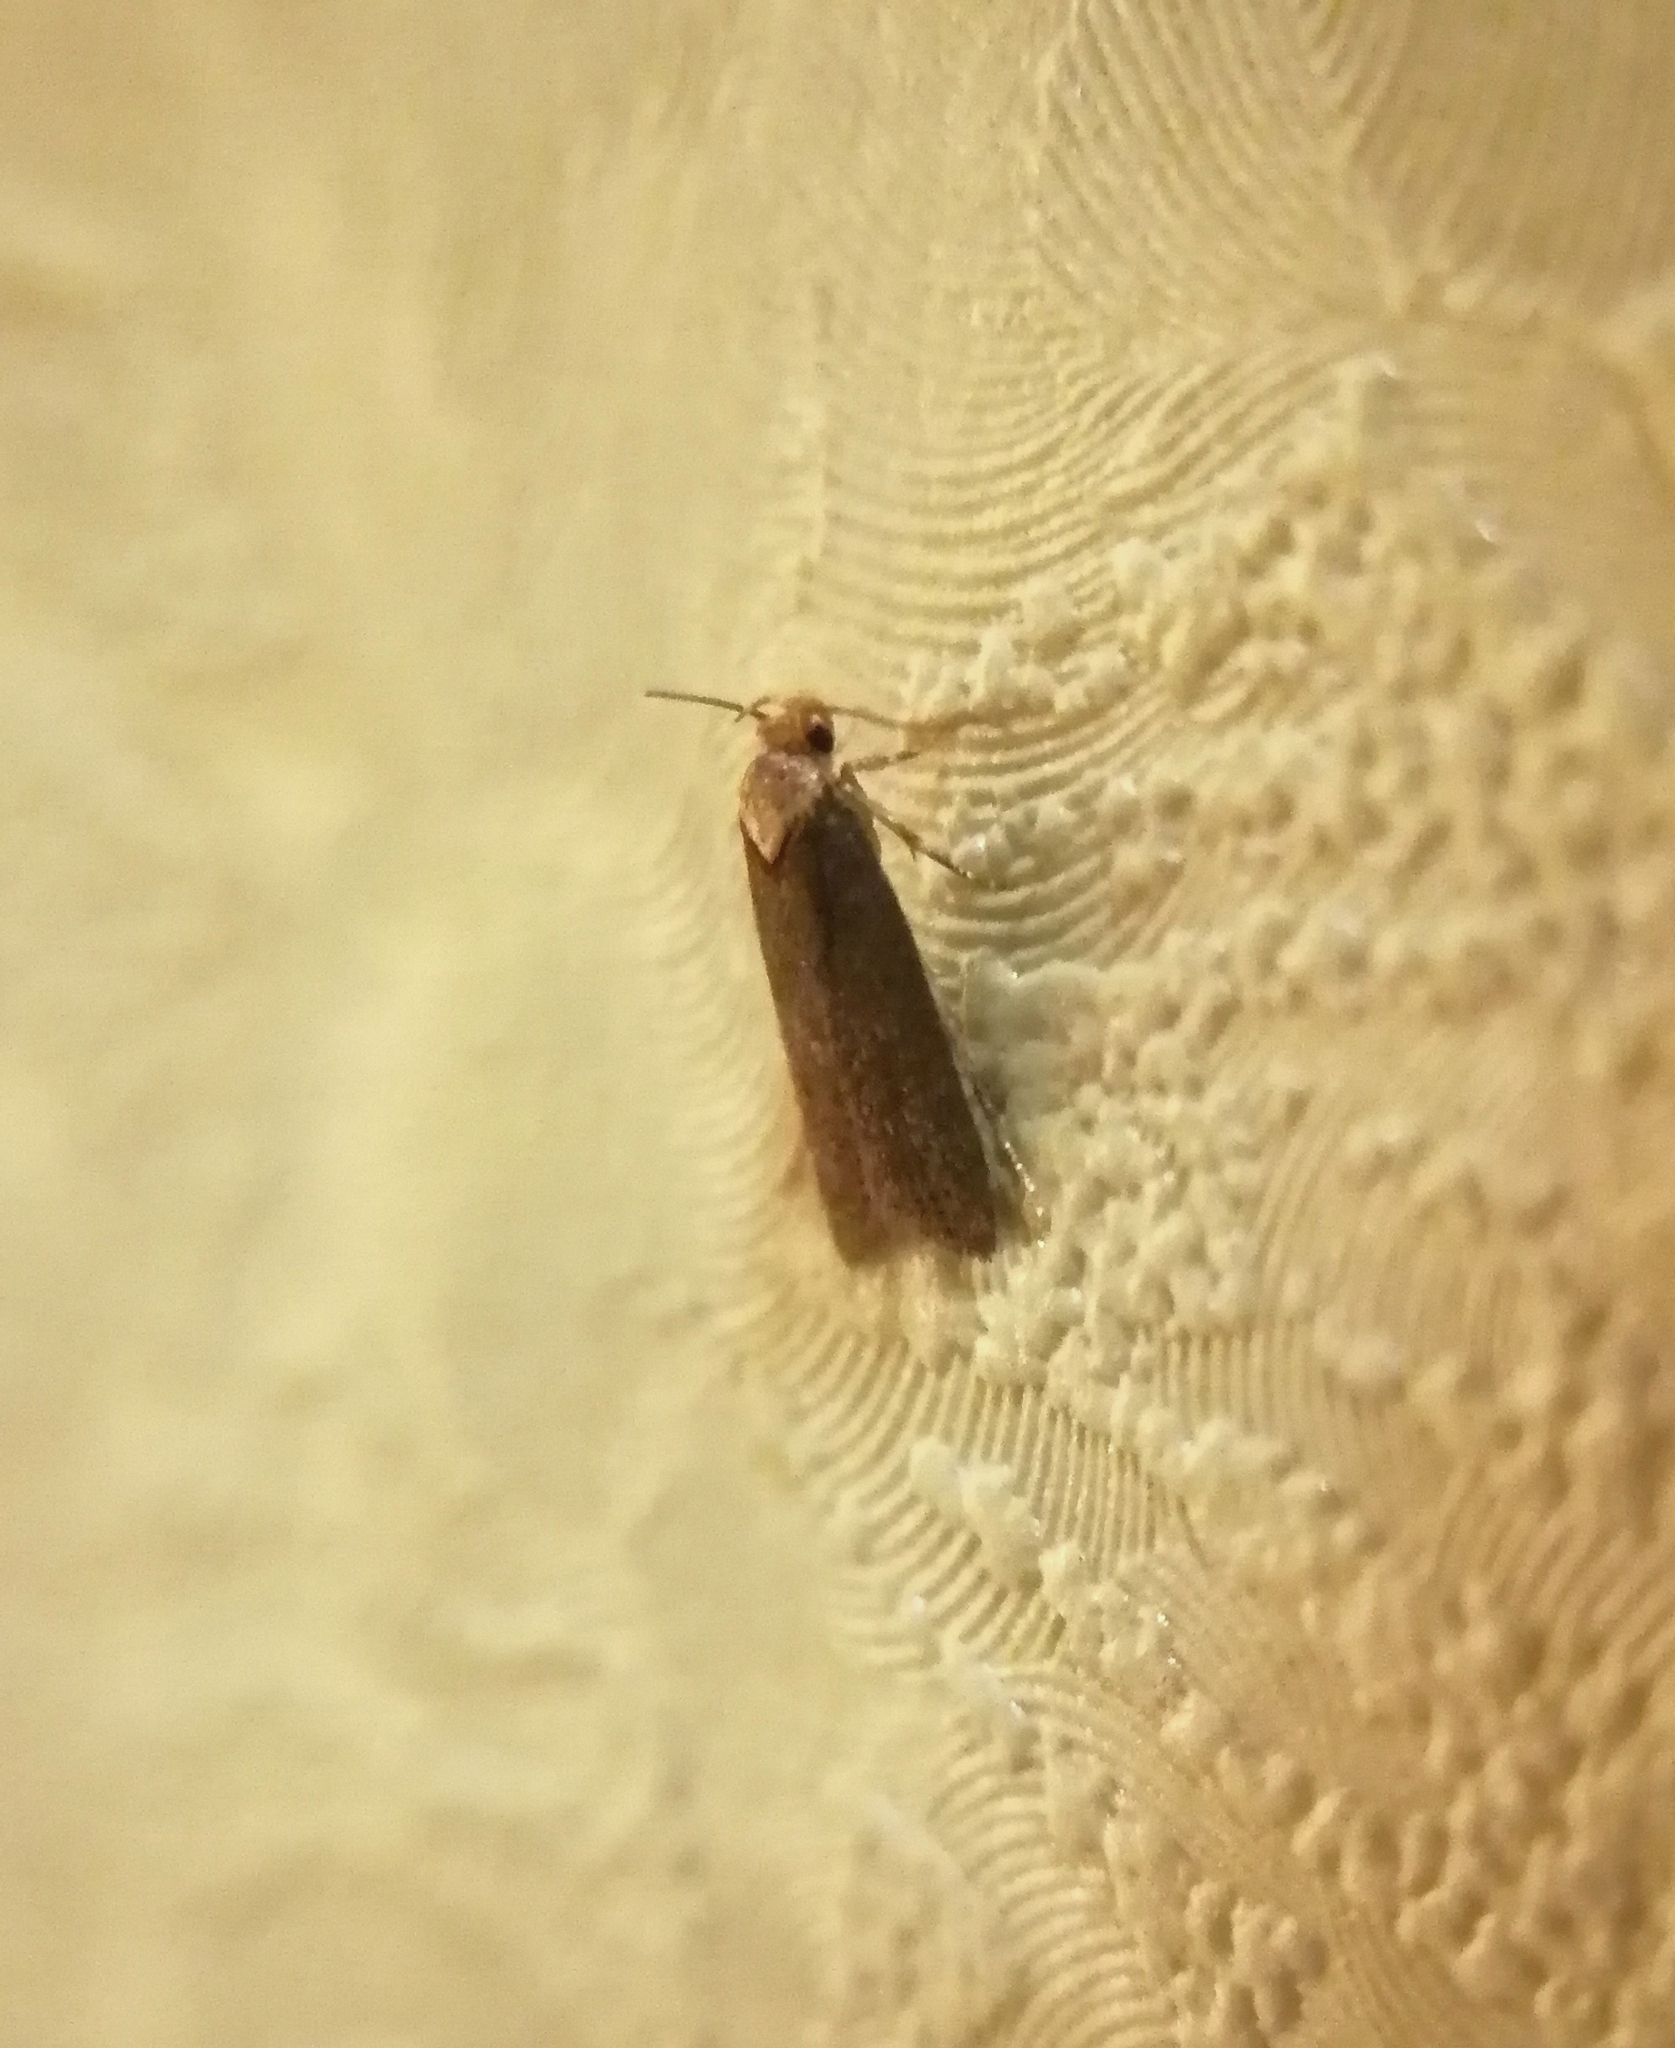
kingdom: Animalia
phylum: Arthropoda
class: Insecta
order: Lepidoptera
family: Depressariidae
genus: Depressaria
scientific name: Depressaria depressana
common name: Lost flat-body
